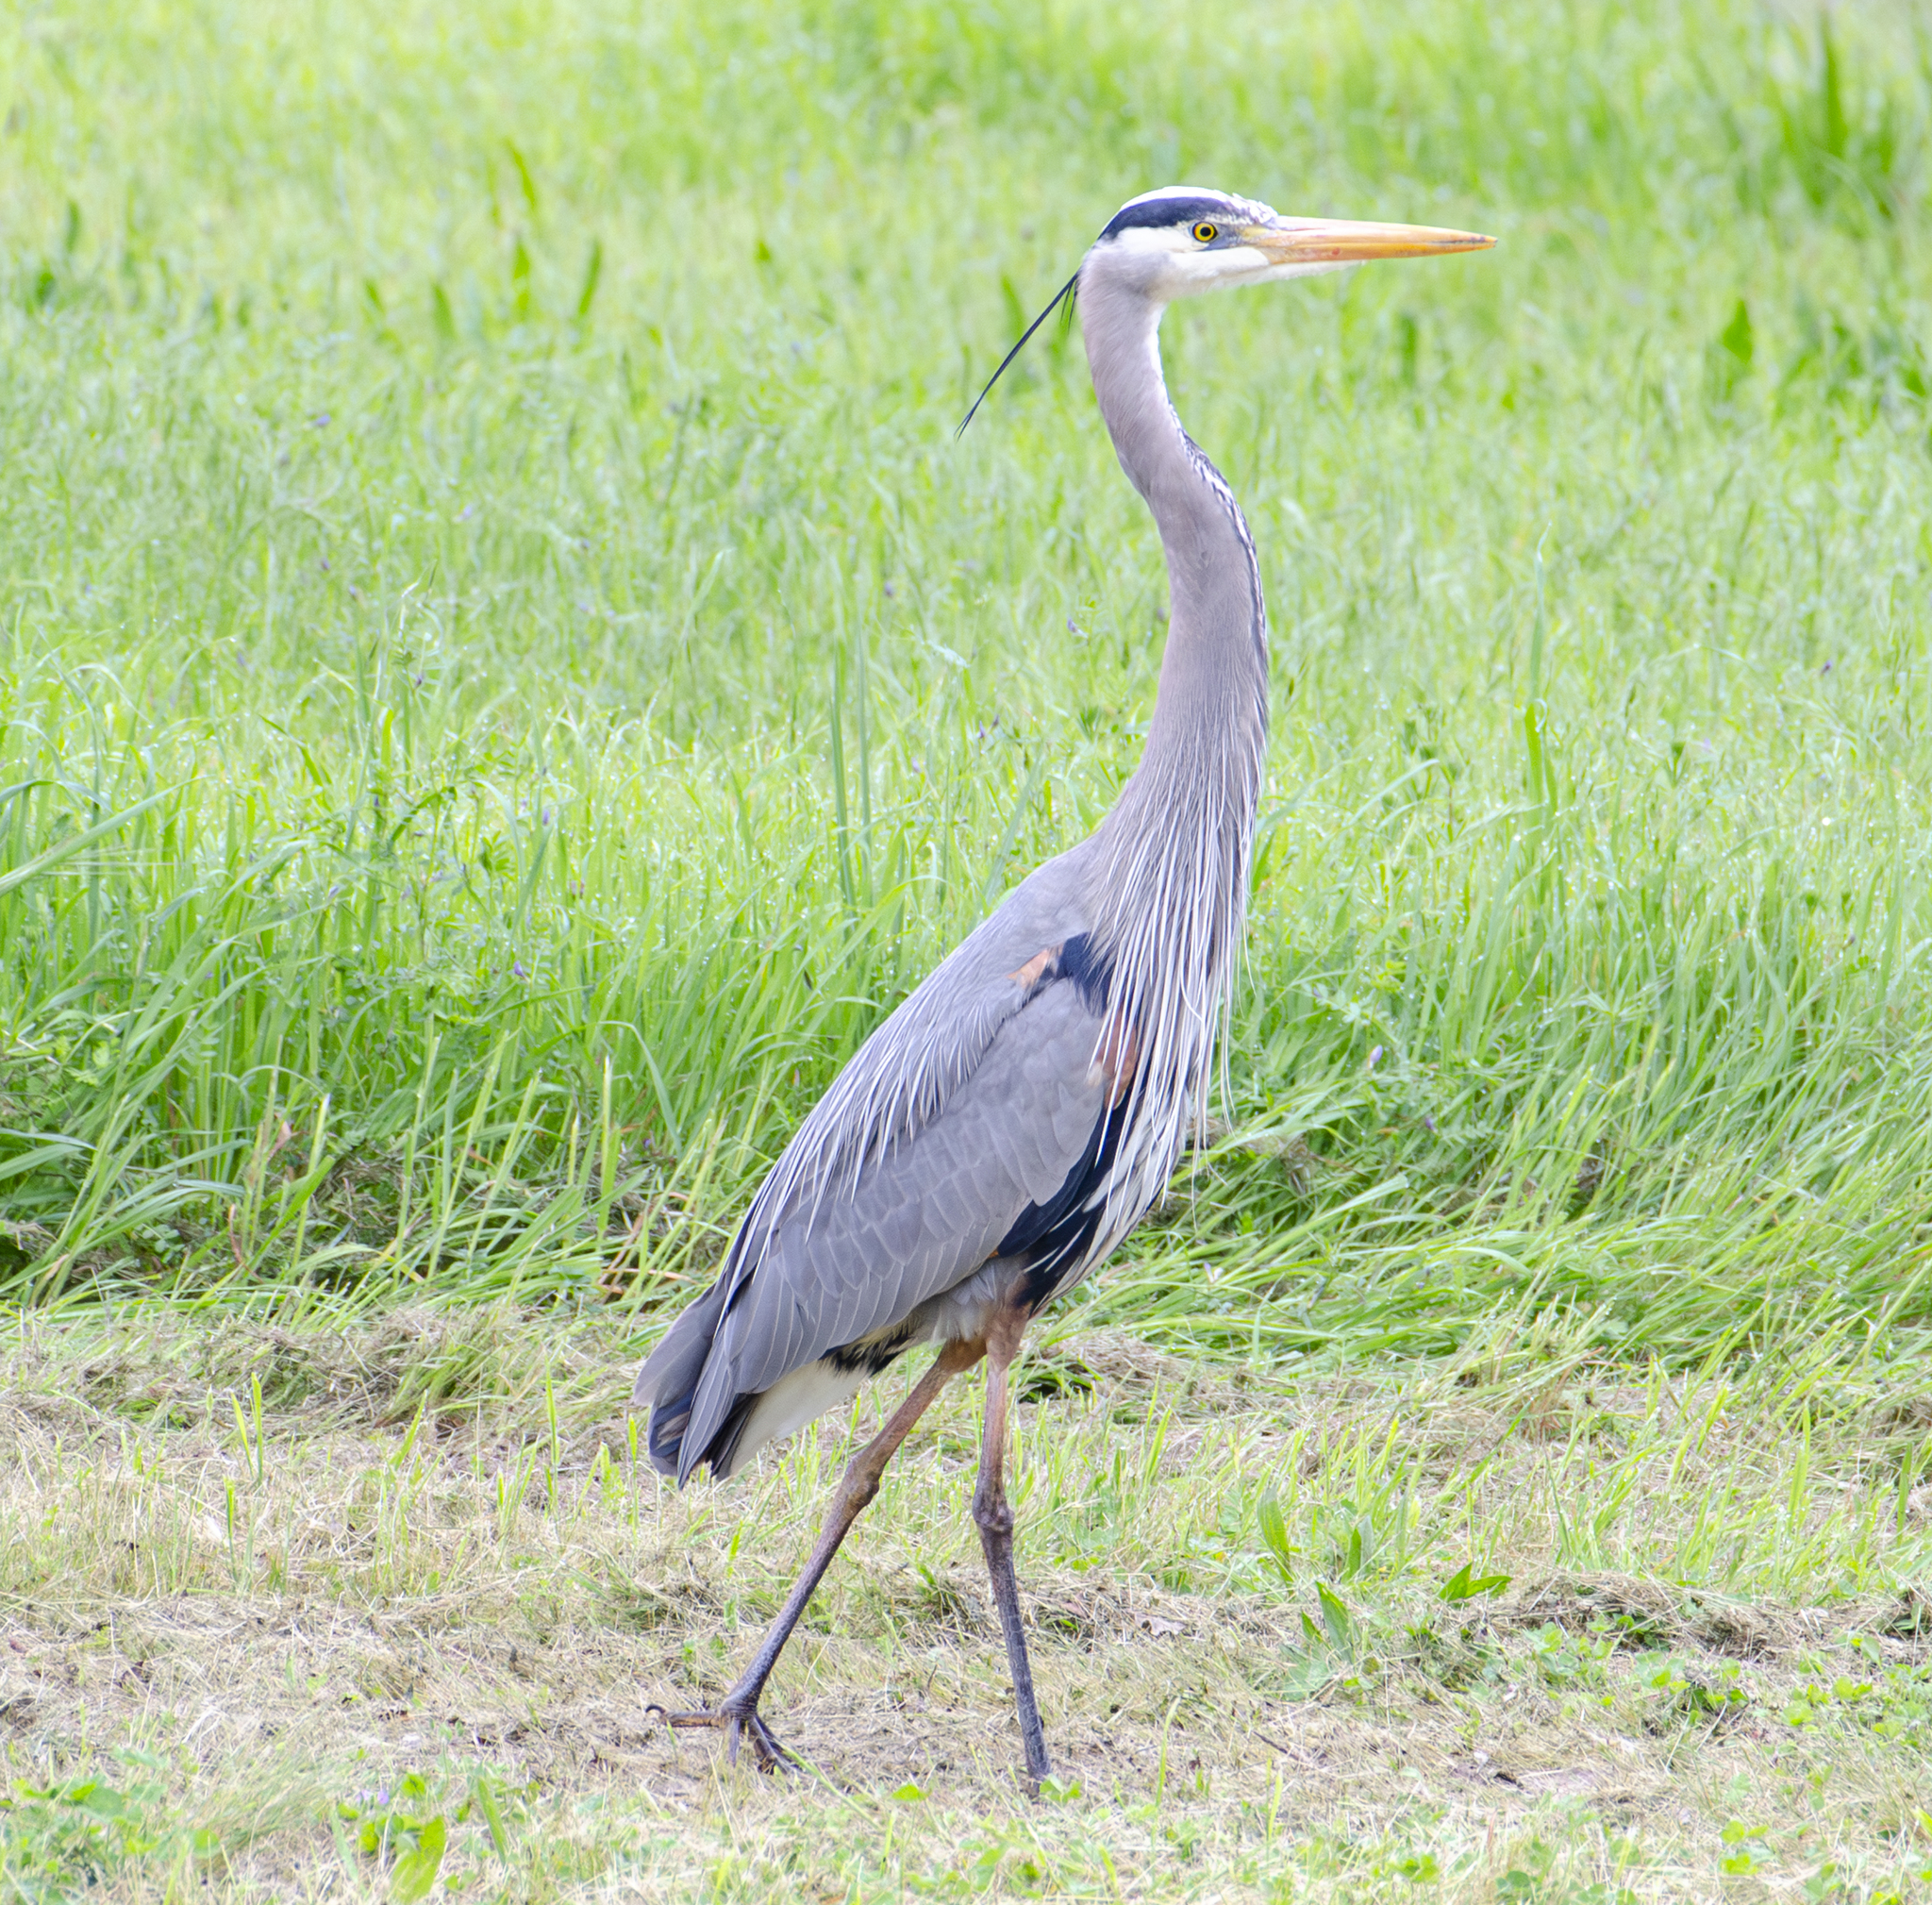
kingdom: Animalia
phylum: Chordata
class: Aves
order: Pelecaniformes
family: Ardeidae
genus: Ardea
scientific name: Ardea herodias
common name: Great blue heron
